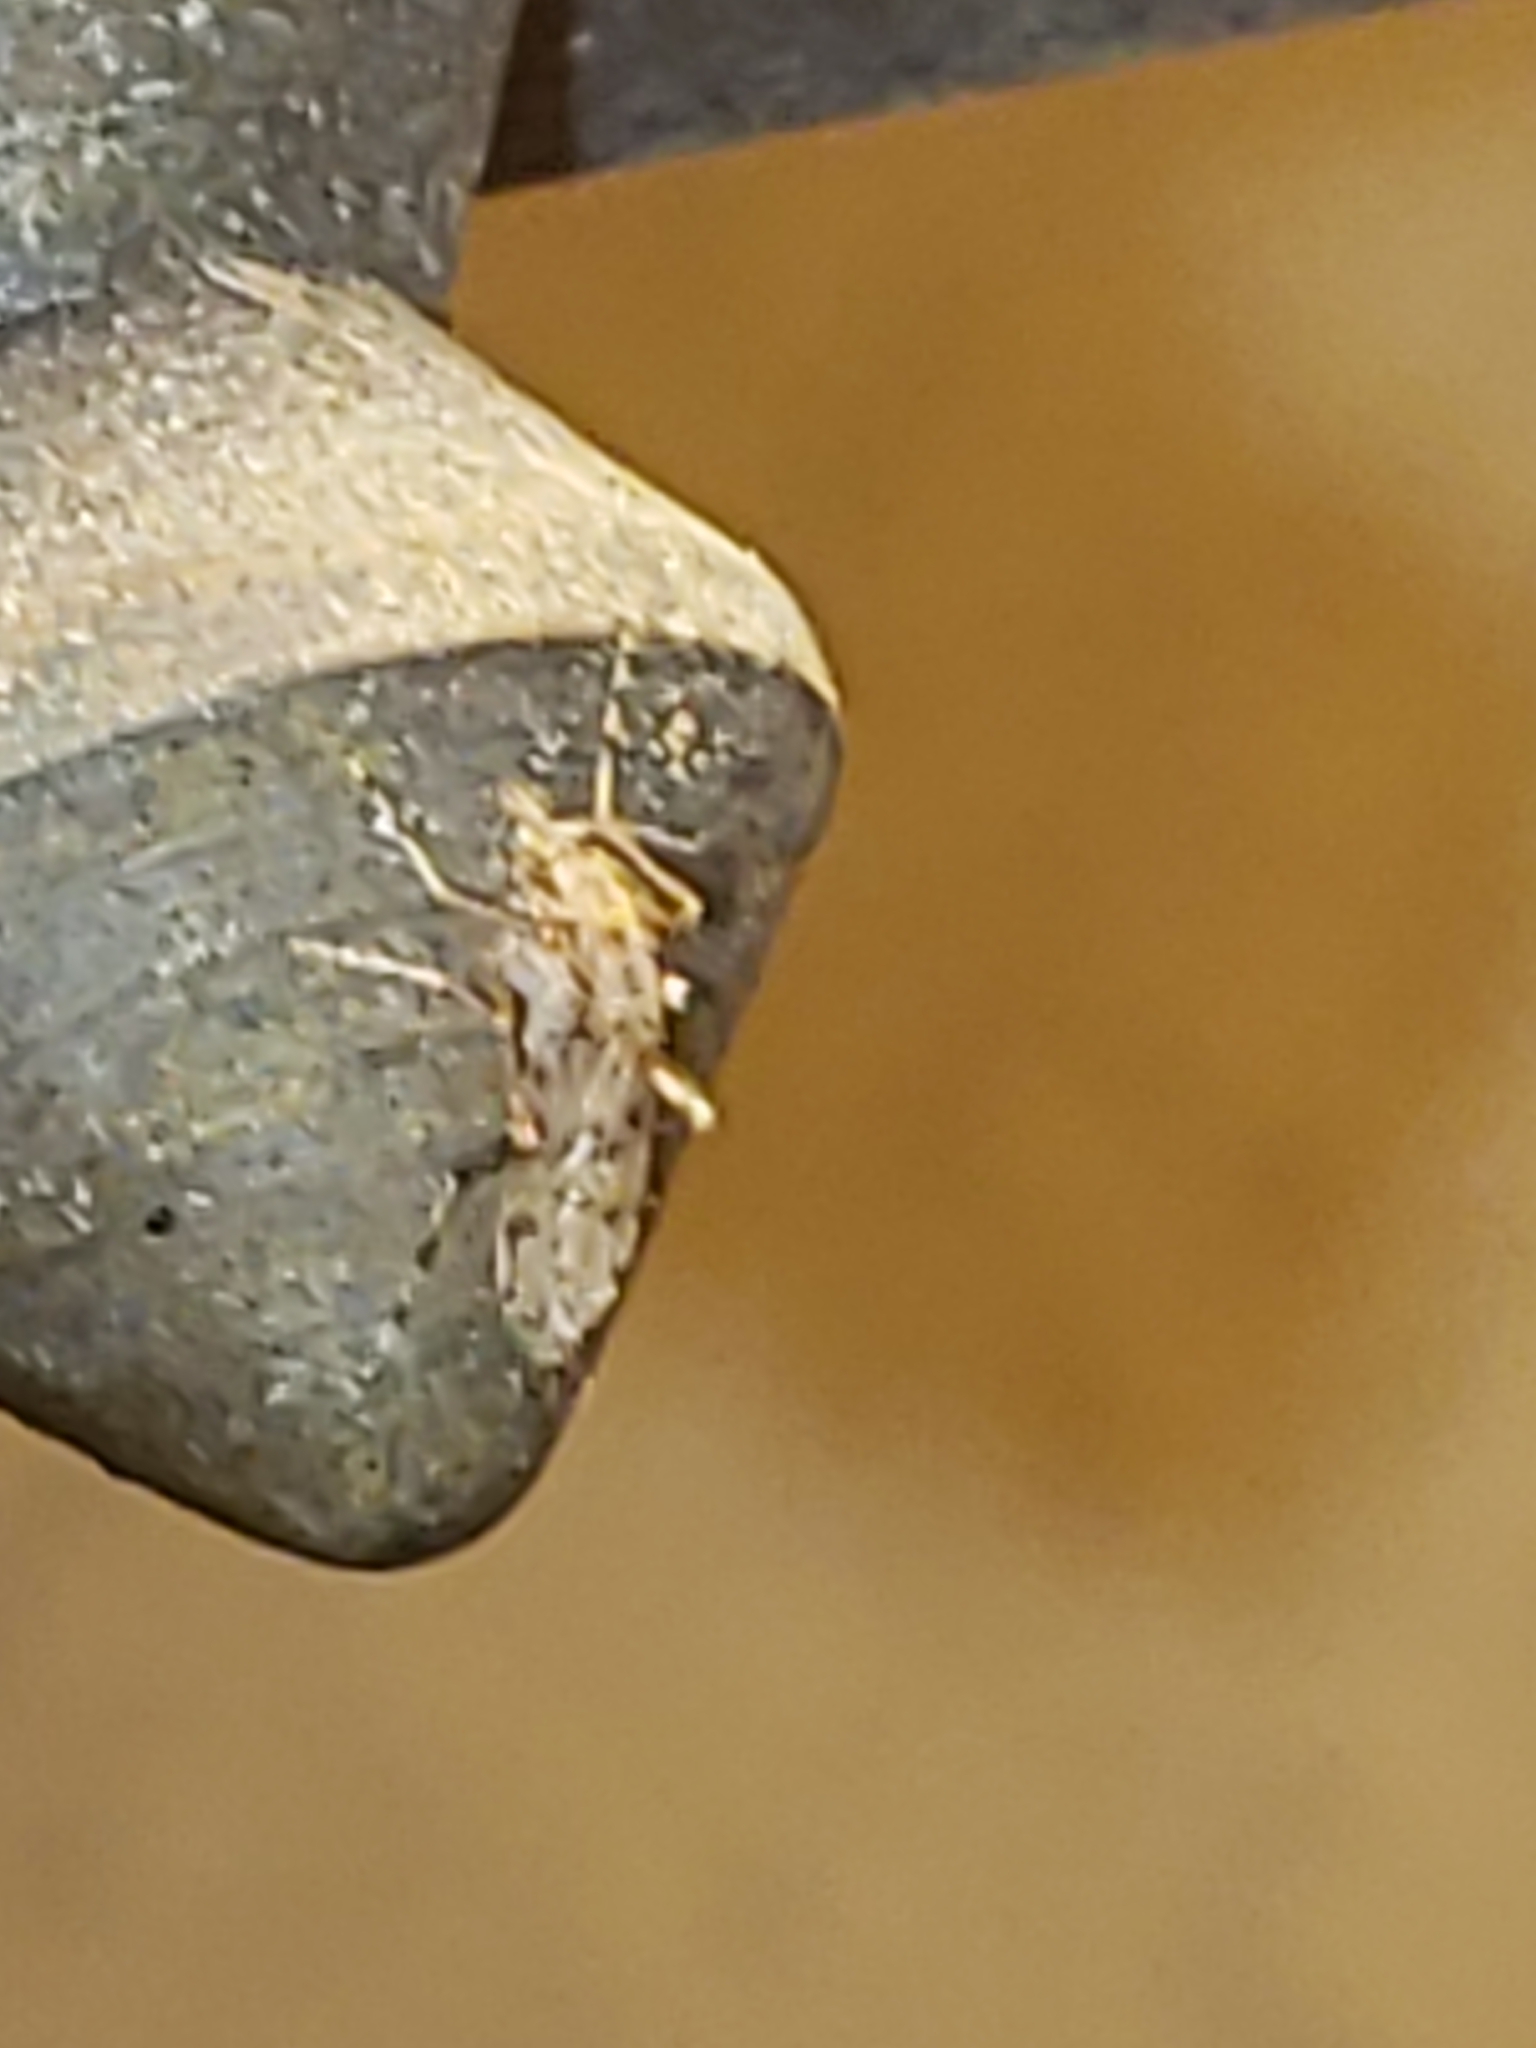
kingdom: Animalia
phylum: Arthropoda
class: Insecta
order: Diptera
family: Chaoboridae
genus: Chaoborus
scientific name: Chaoborus punctipennis
